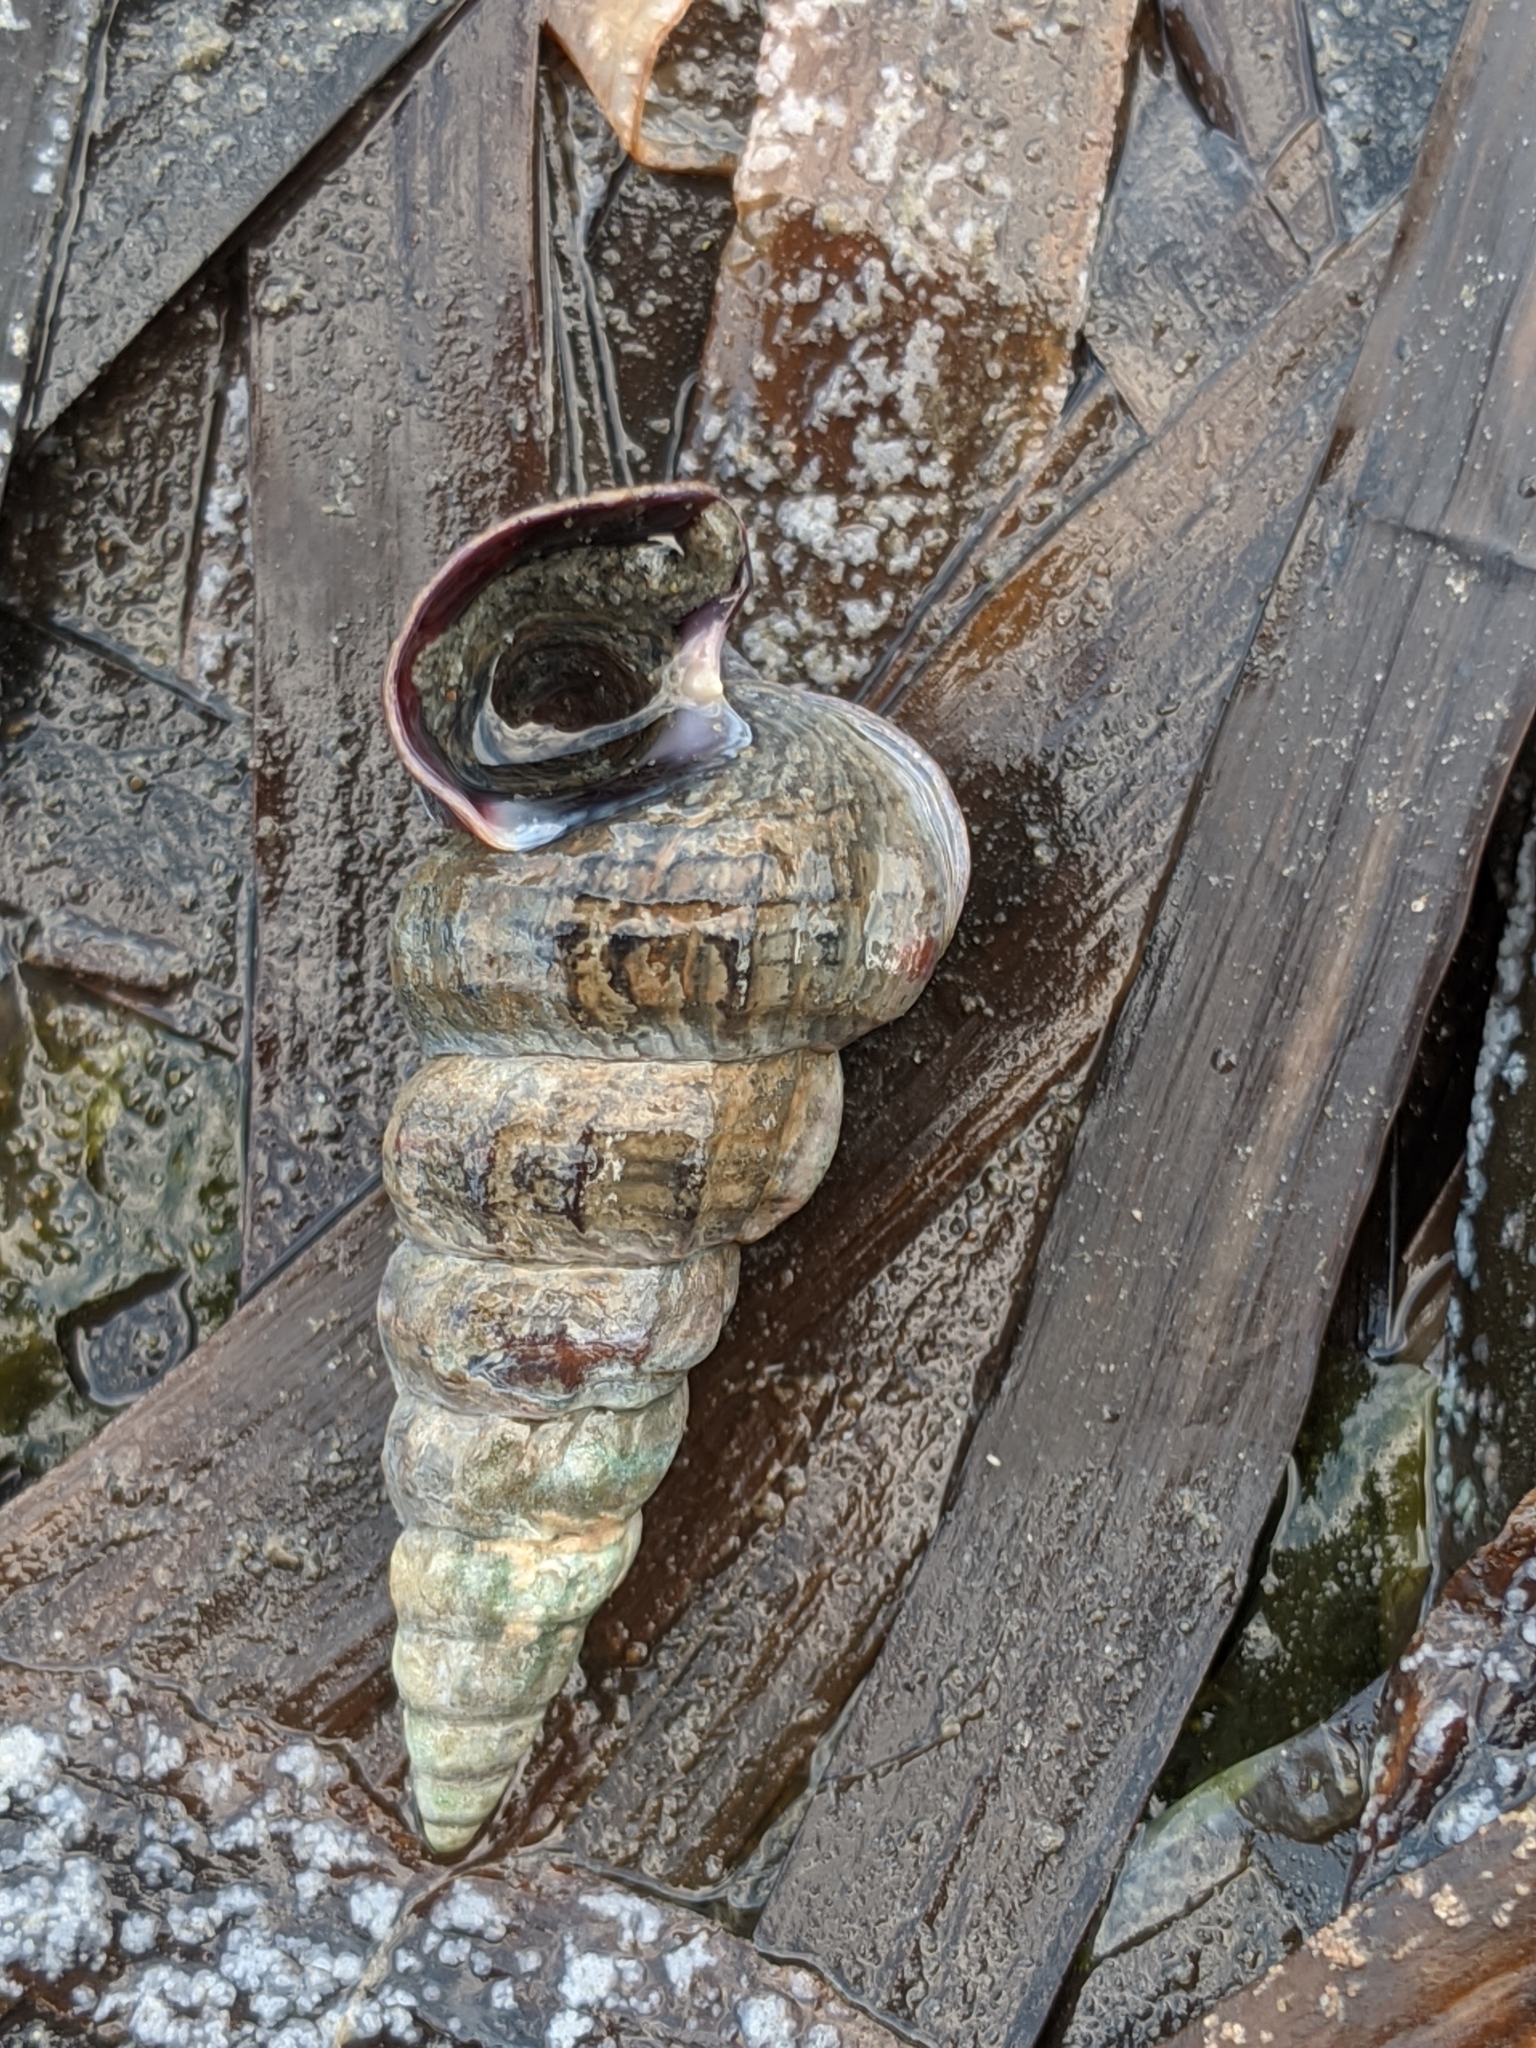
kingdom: Animalia
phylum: Mollusca
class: Gastropoda
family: Potamididae
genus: Cerithideopsis
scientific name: Cerithideopsis californica
